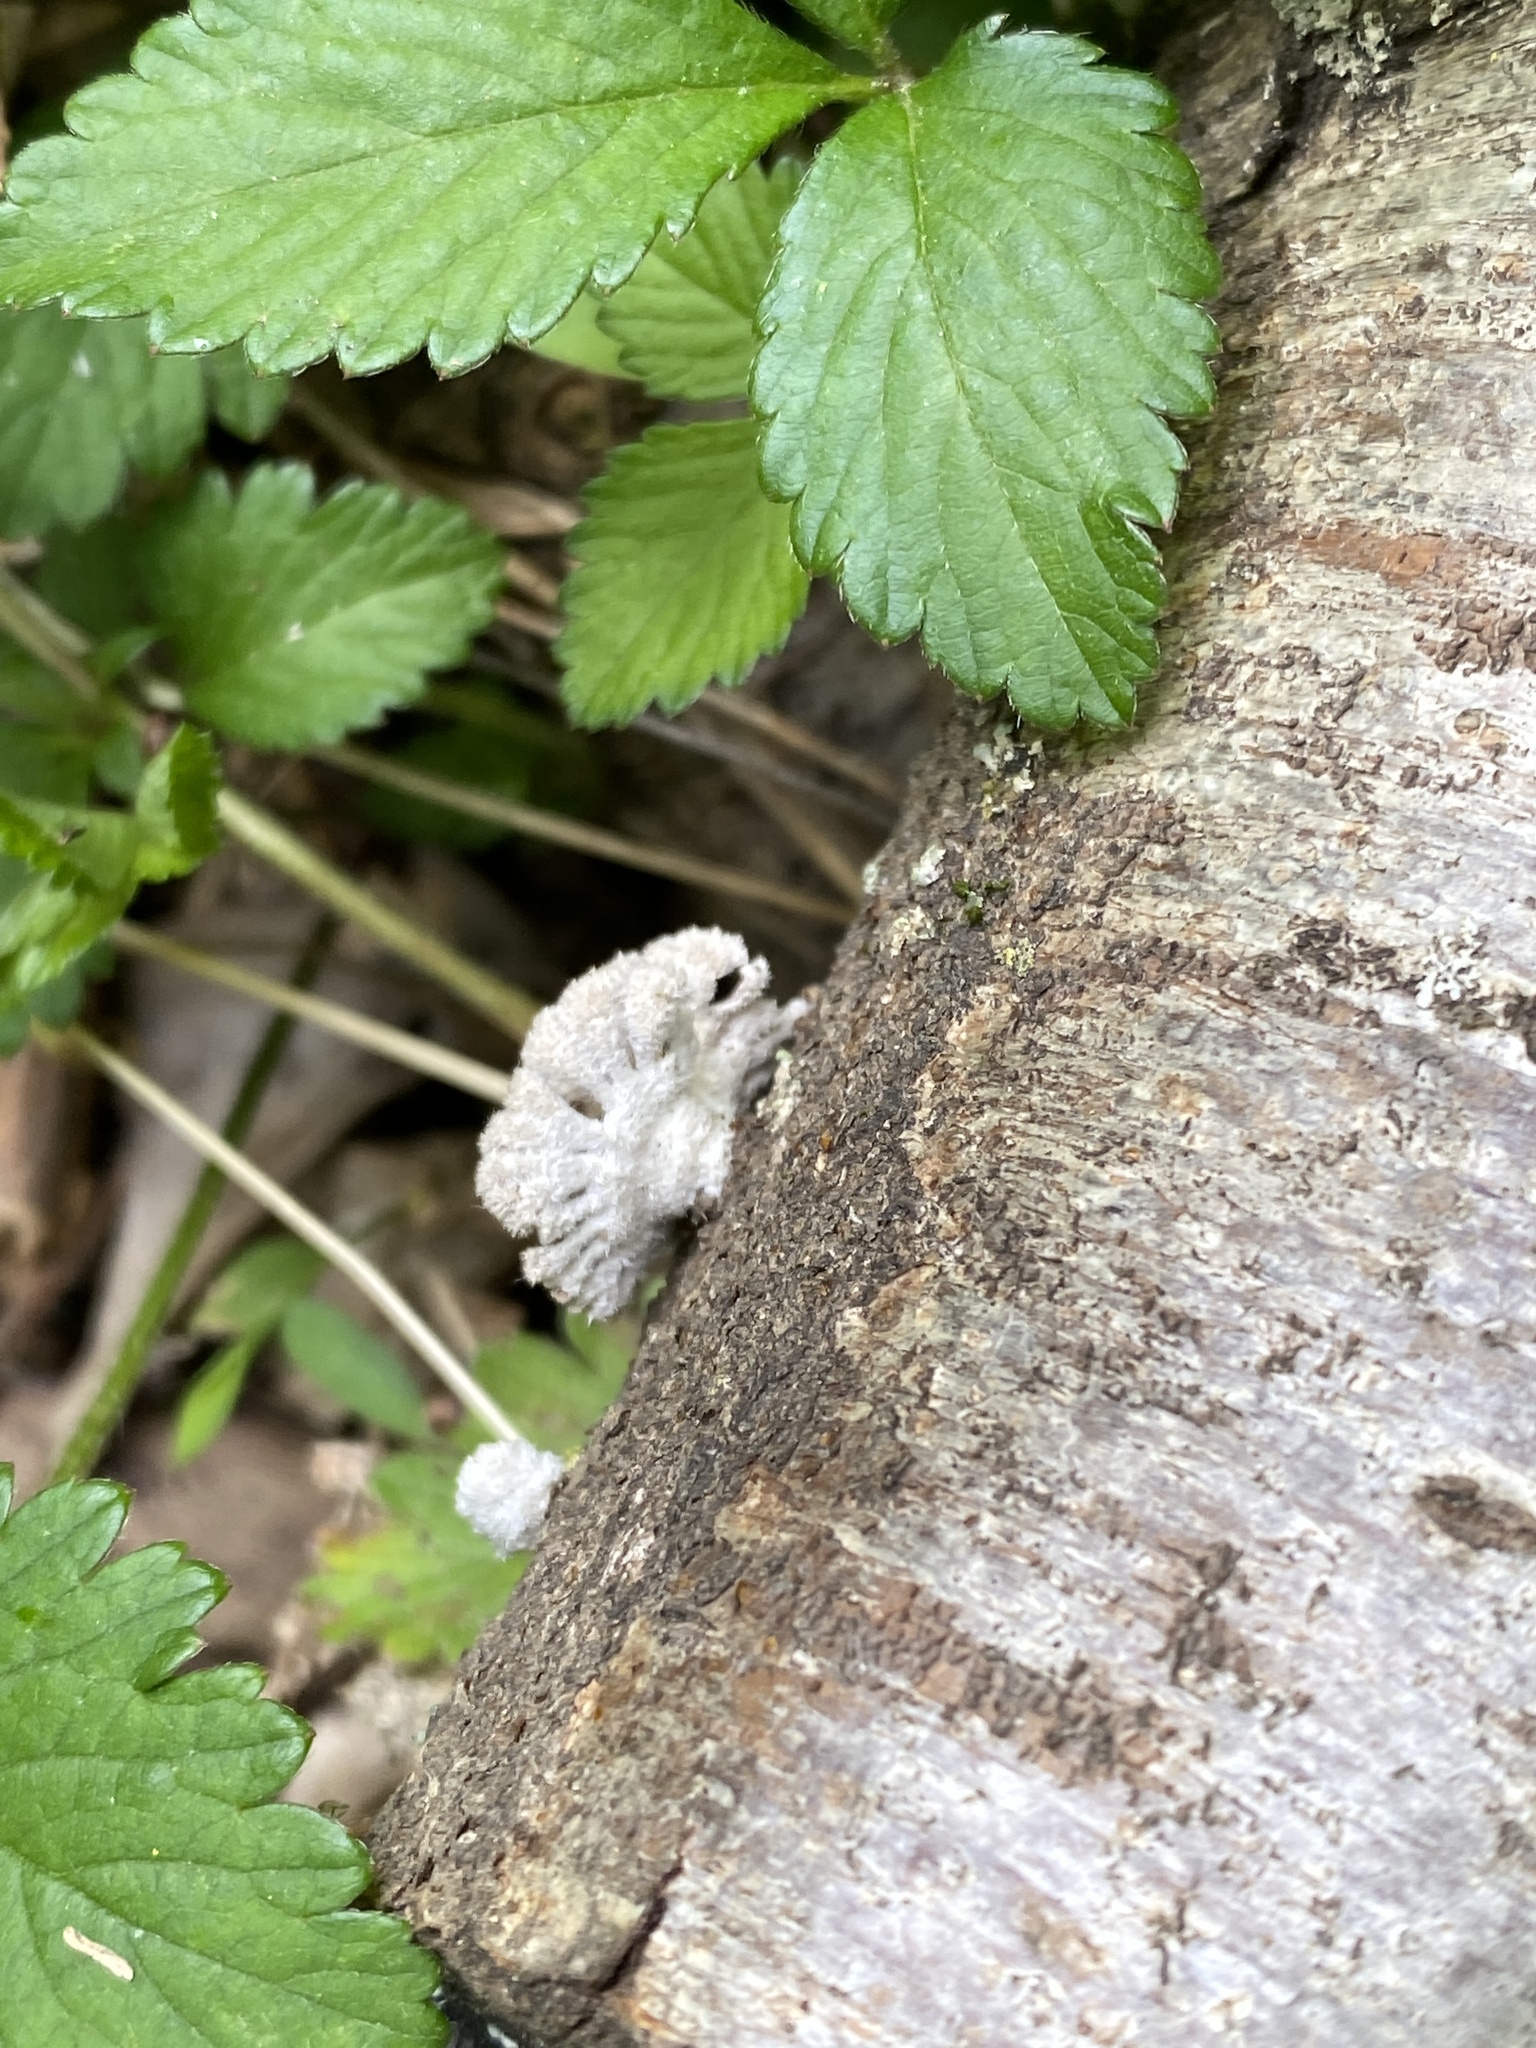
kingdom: Fungi
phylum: Basidiomycota
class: Agaricomycetes
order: Agaricales
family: Schizophyllaceae
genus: Schizophyllum
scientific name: Schizophyllum commune
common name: Common porecrust
